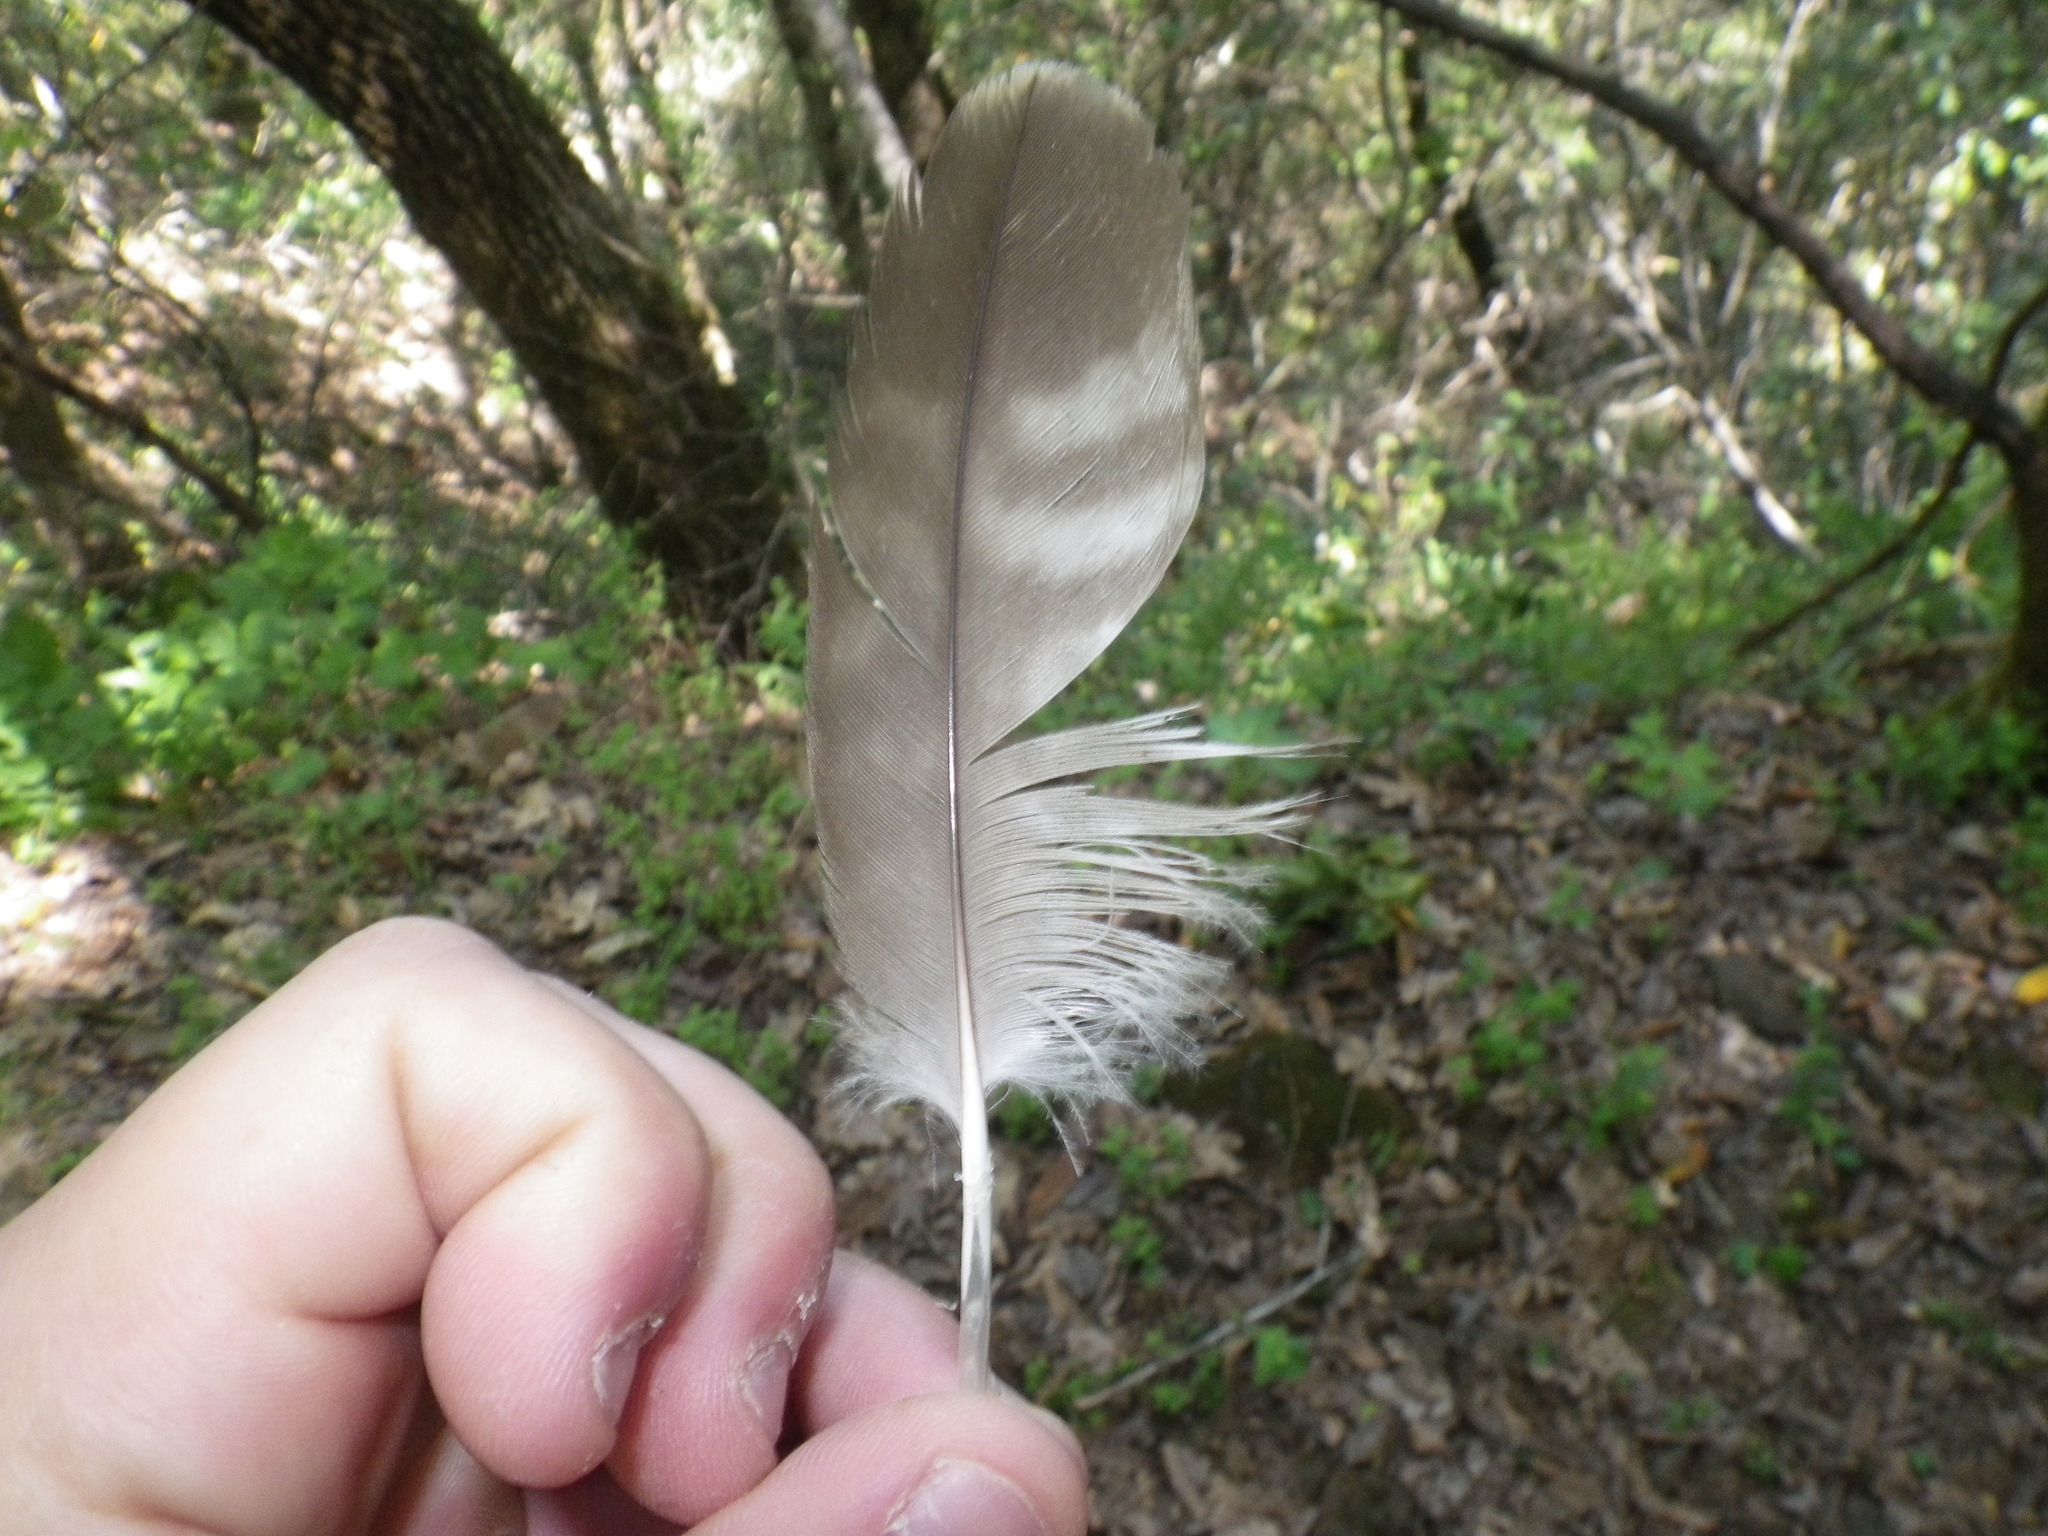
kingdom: Animalia
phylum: Chordata
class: Aves
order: Accipitriformes
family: Accipitridae
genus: Buteo
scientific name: Buteo jamaicensis
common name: Red-tailed hawk
